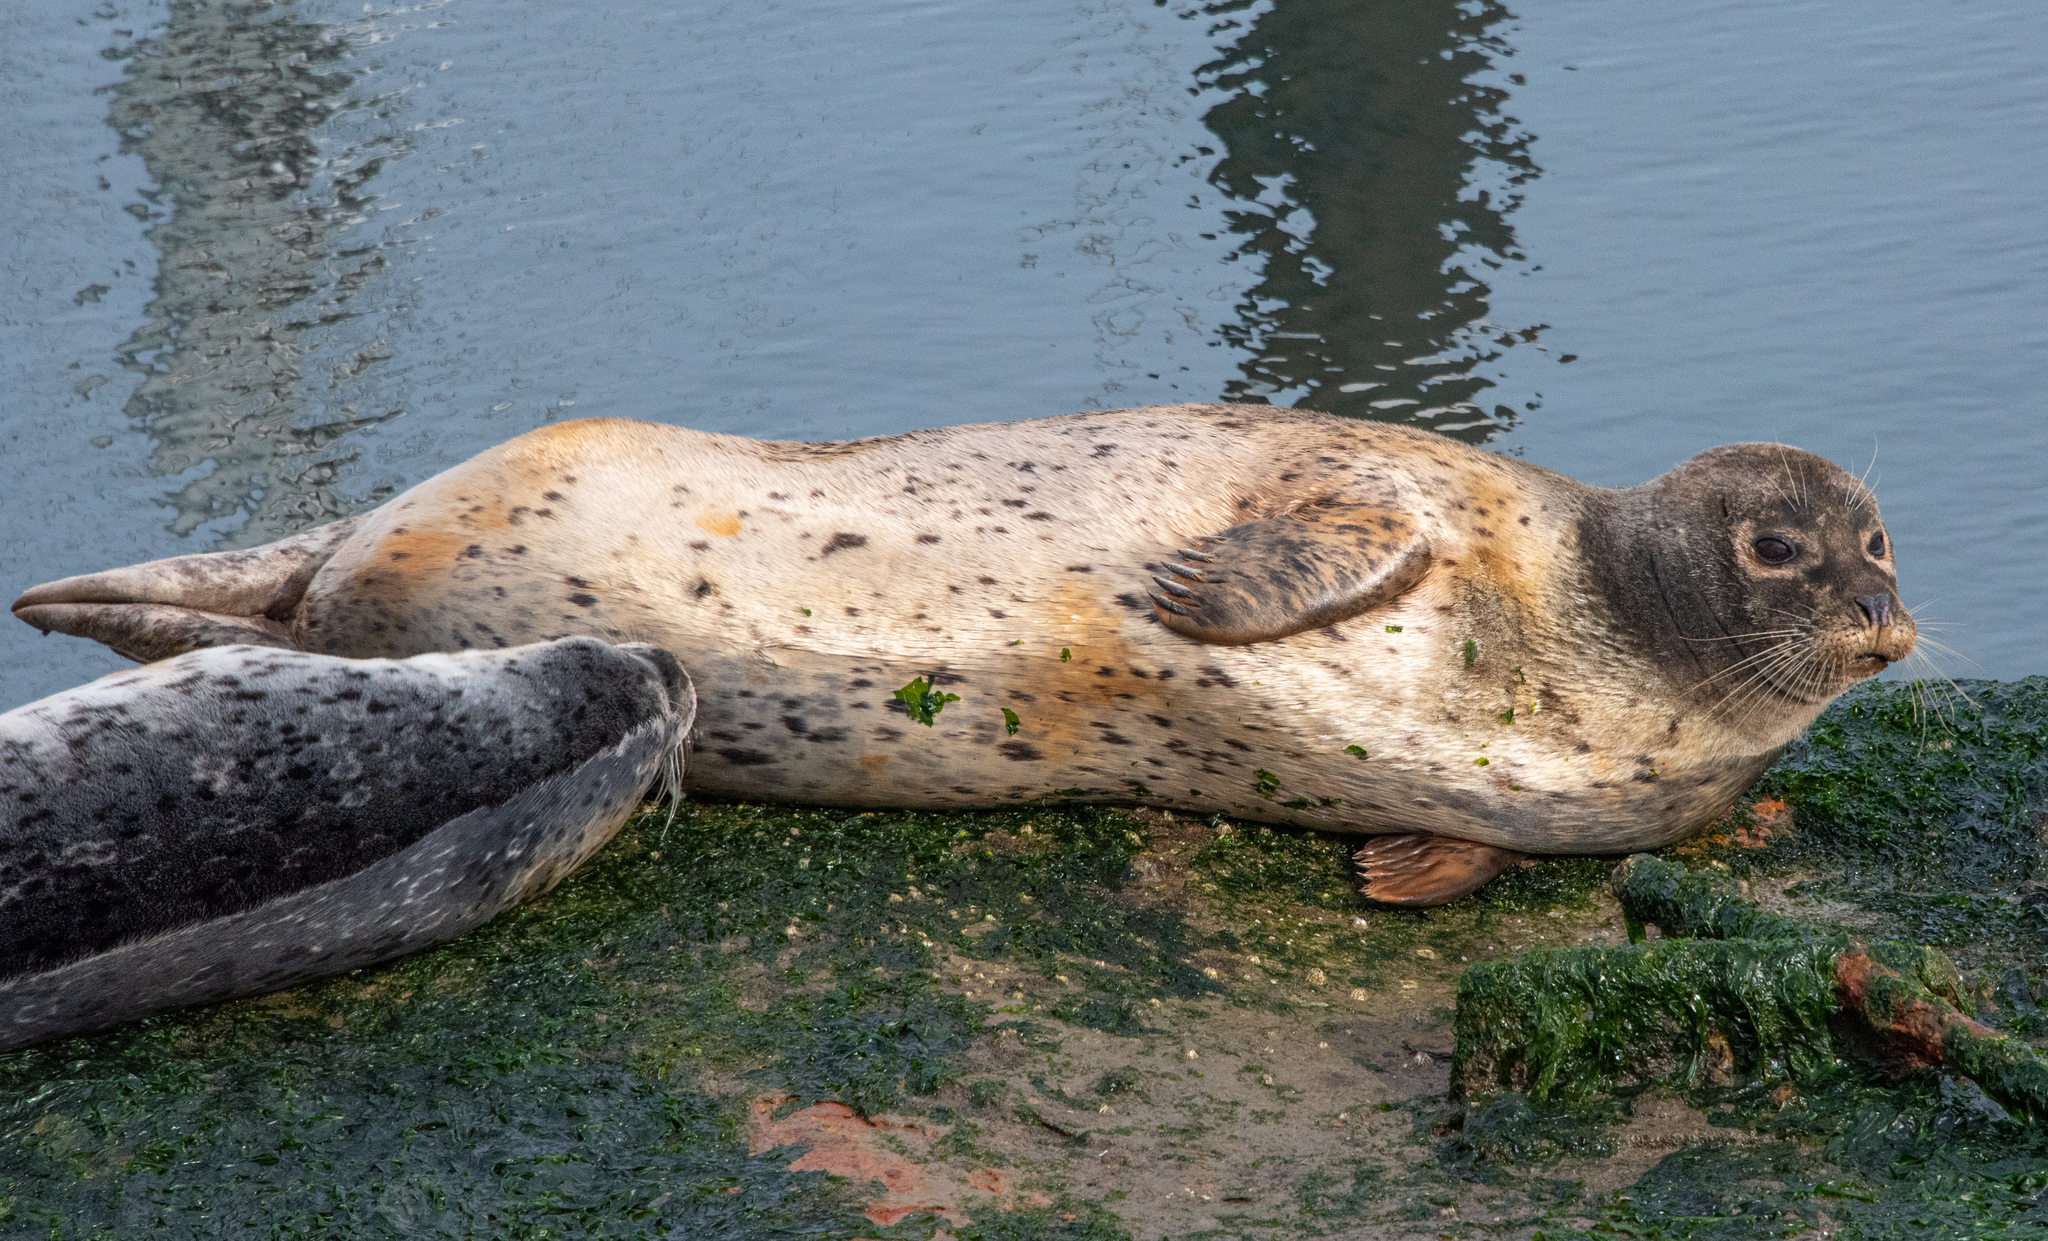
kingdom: Animalia
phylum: Chordata
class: Mammalia
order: Carnivora
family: Phocidae
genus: Phoca
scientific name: Phoca vitulina
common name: Harbor seal
